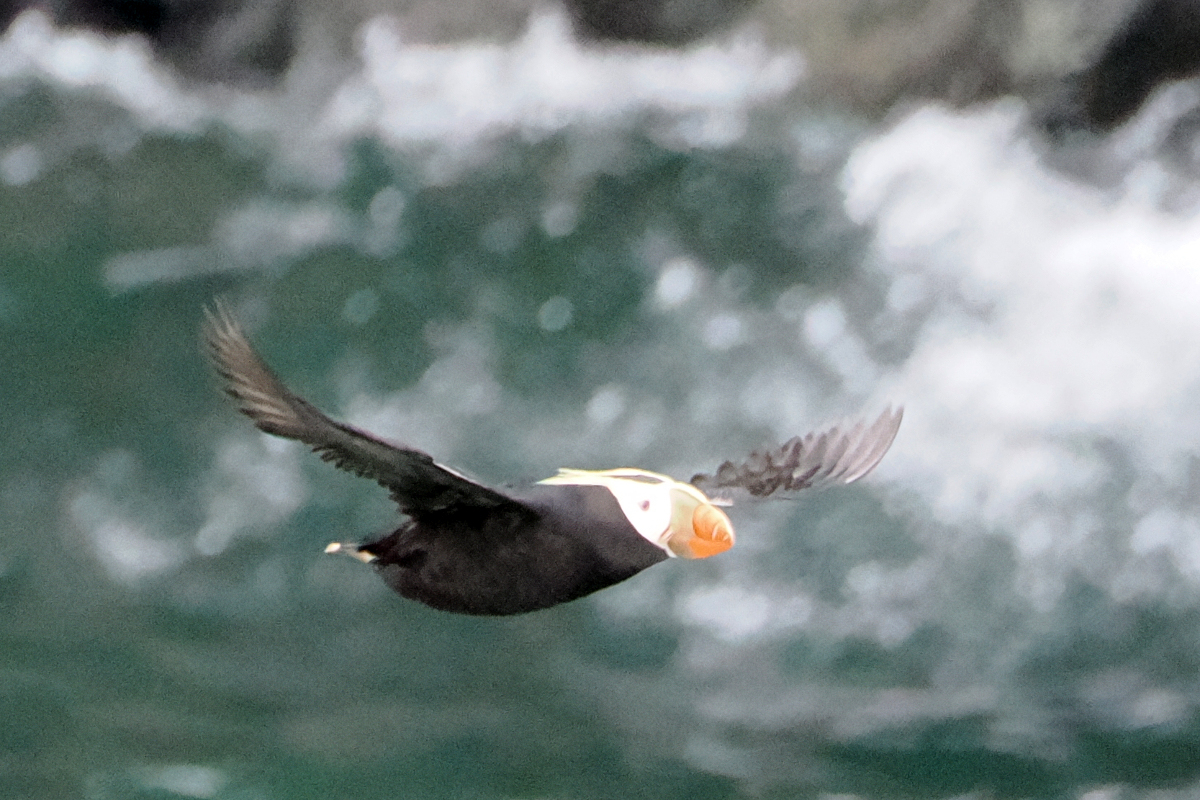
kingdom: Animalia
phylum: Chordata
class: Aves
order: Charadriiformes
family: Alcidae
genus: Fratercula
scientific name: Fratercula cirrhata
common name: Tufted puffin
